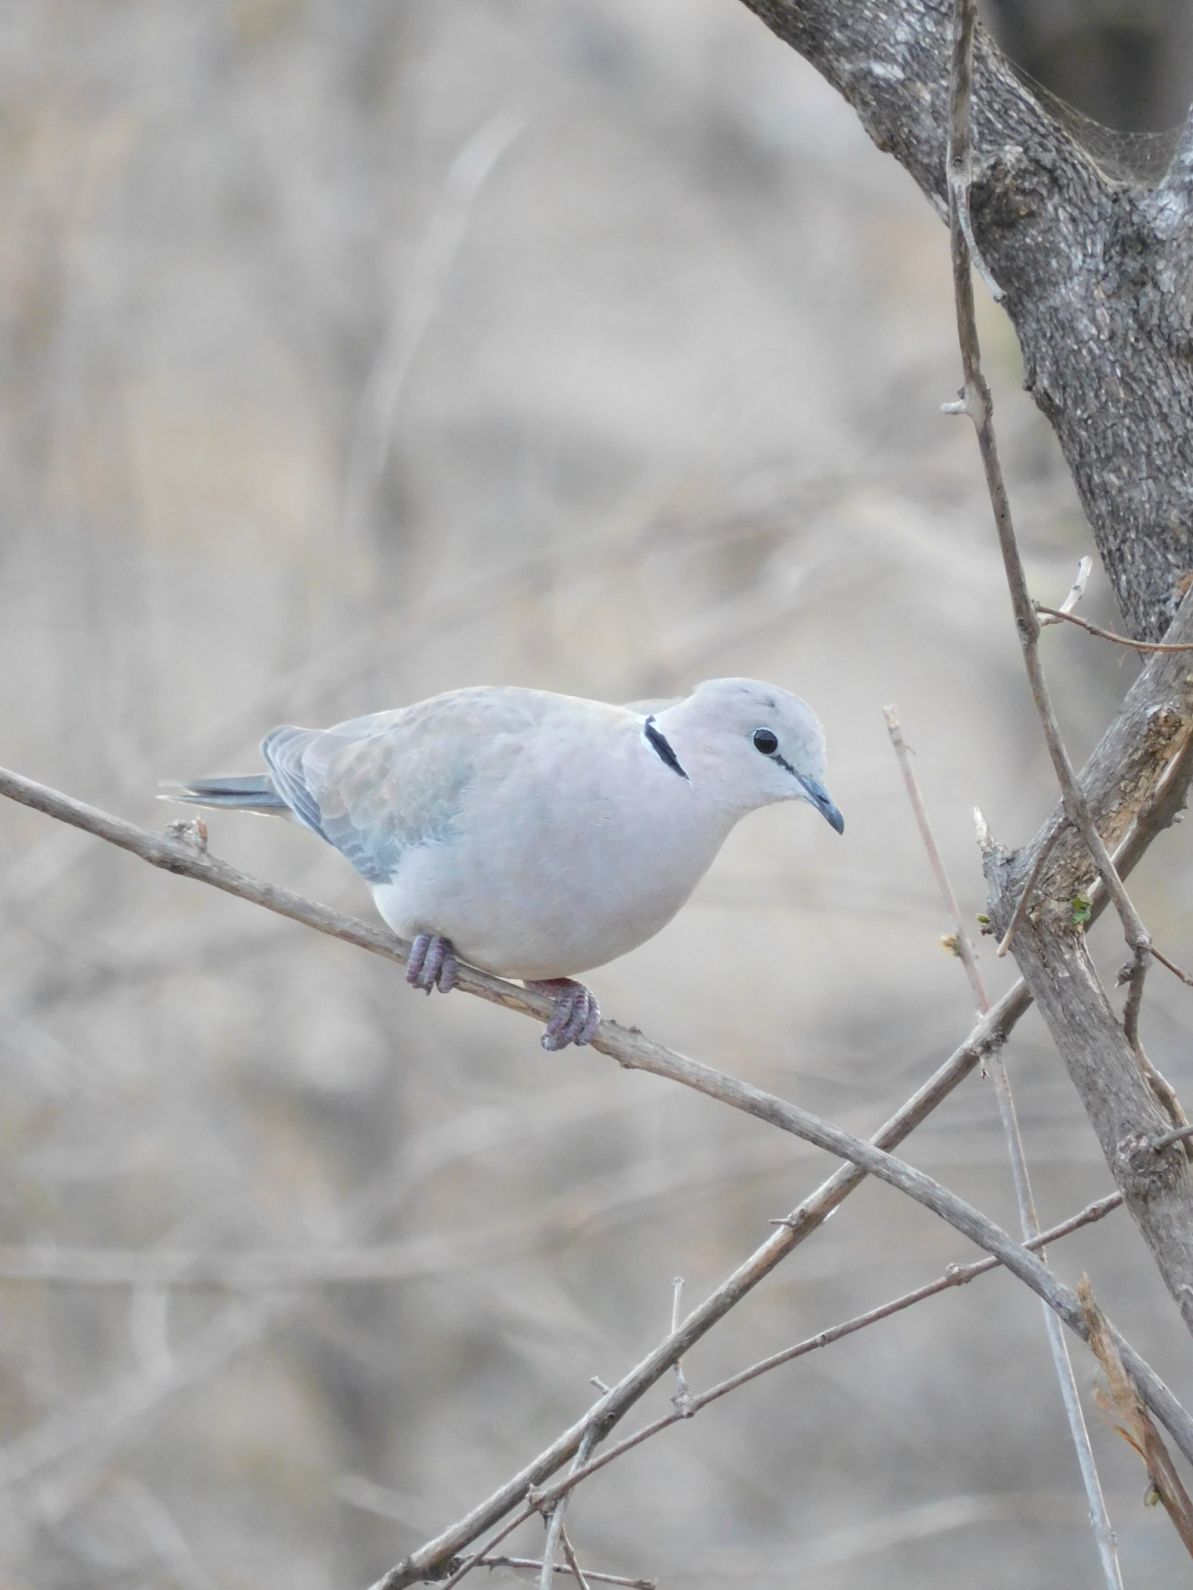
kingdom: Animalia
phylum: Chordata
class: Aves
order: Columbiformes
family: Columbidae
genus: Streptopelia
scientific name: Streptopelia capicola
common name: Ring-necked dove
